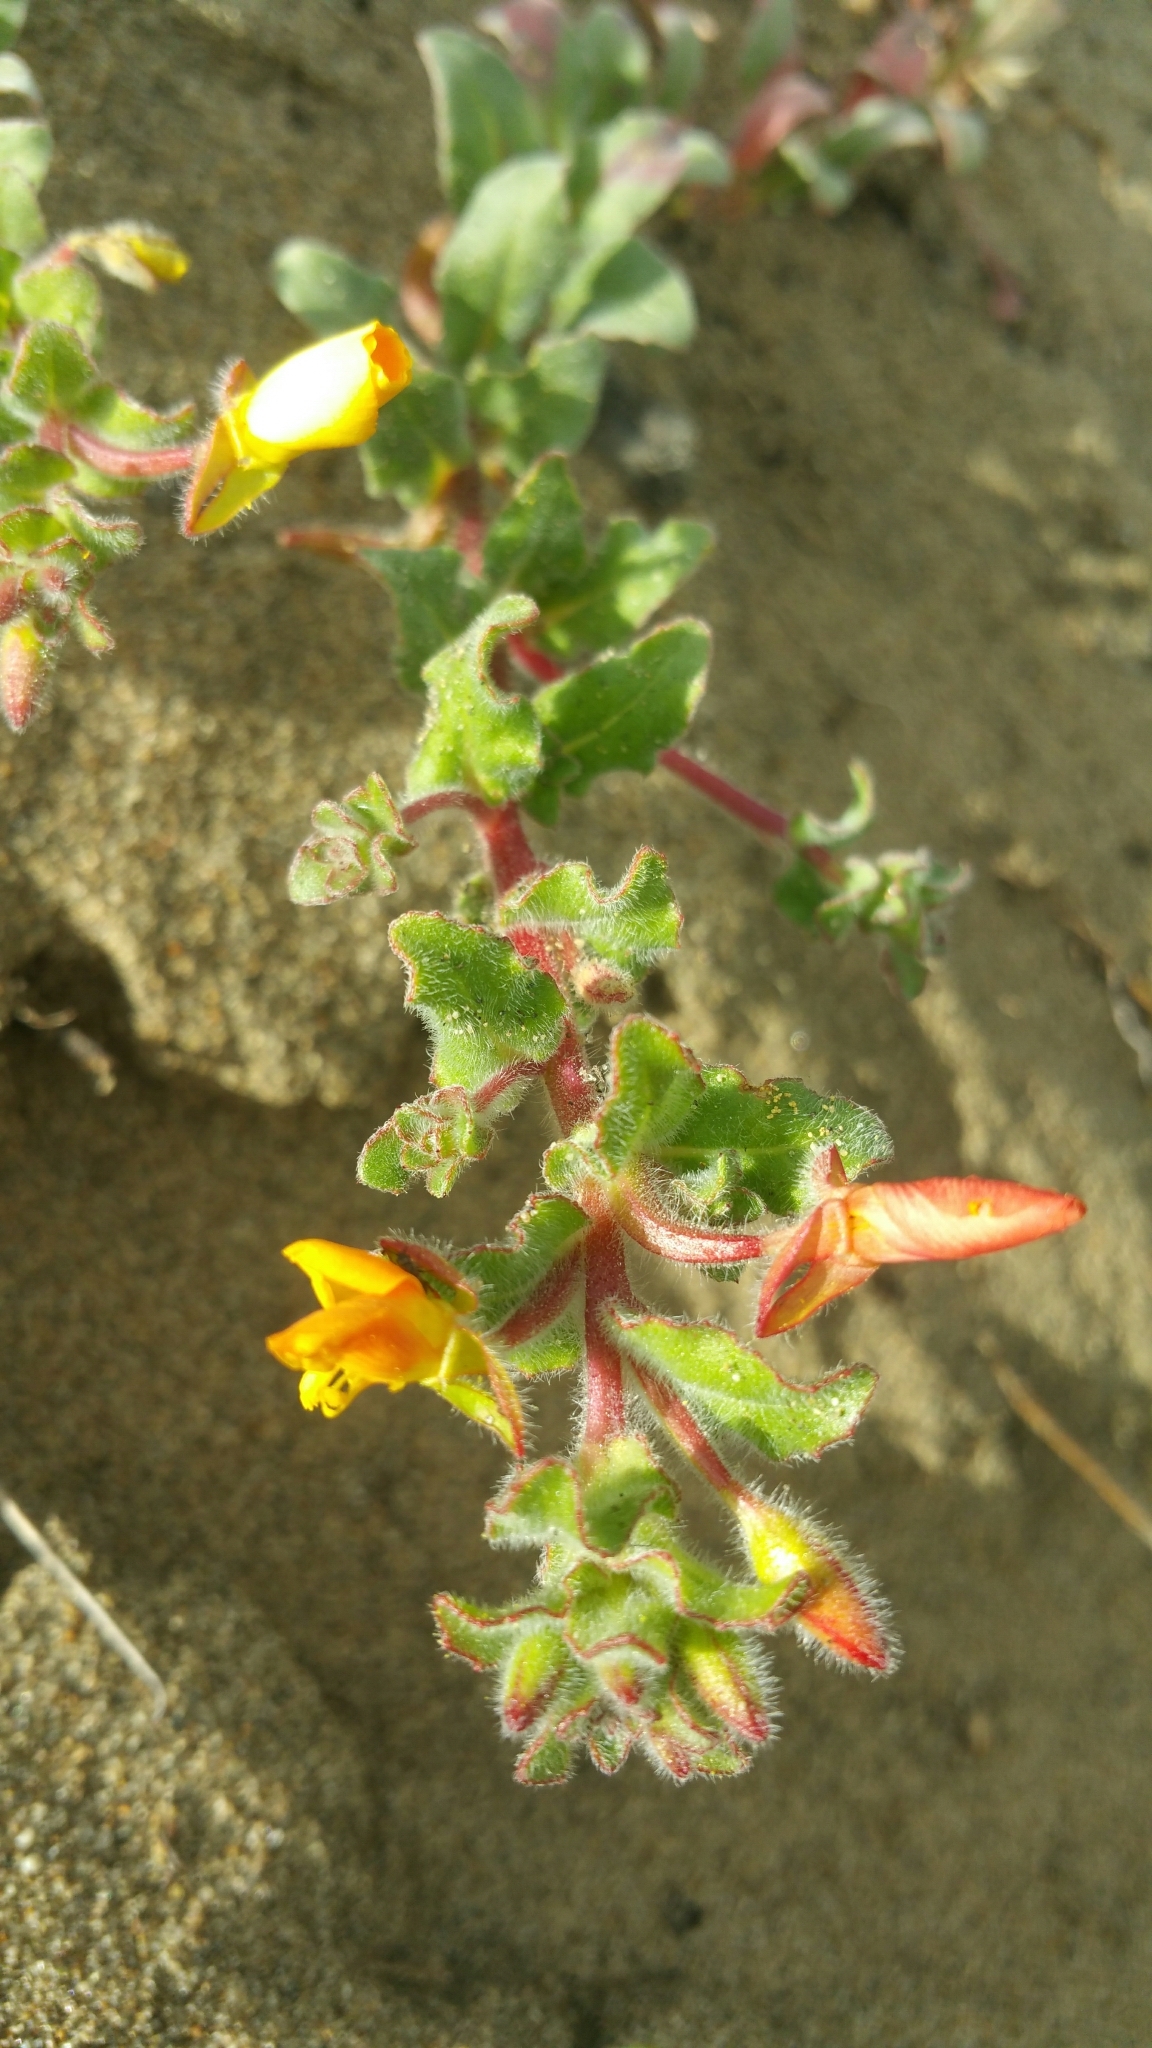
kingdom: Plantae
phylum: Tracheophyta
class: Magnoliopsida
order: Myrtales
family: Onagraceae
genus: Camissoniopsis
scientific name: Camissoniopsis cheiranthifolia
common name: Beach suncup
